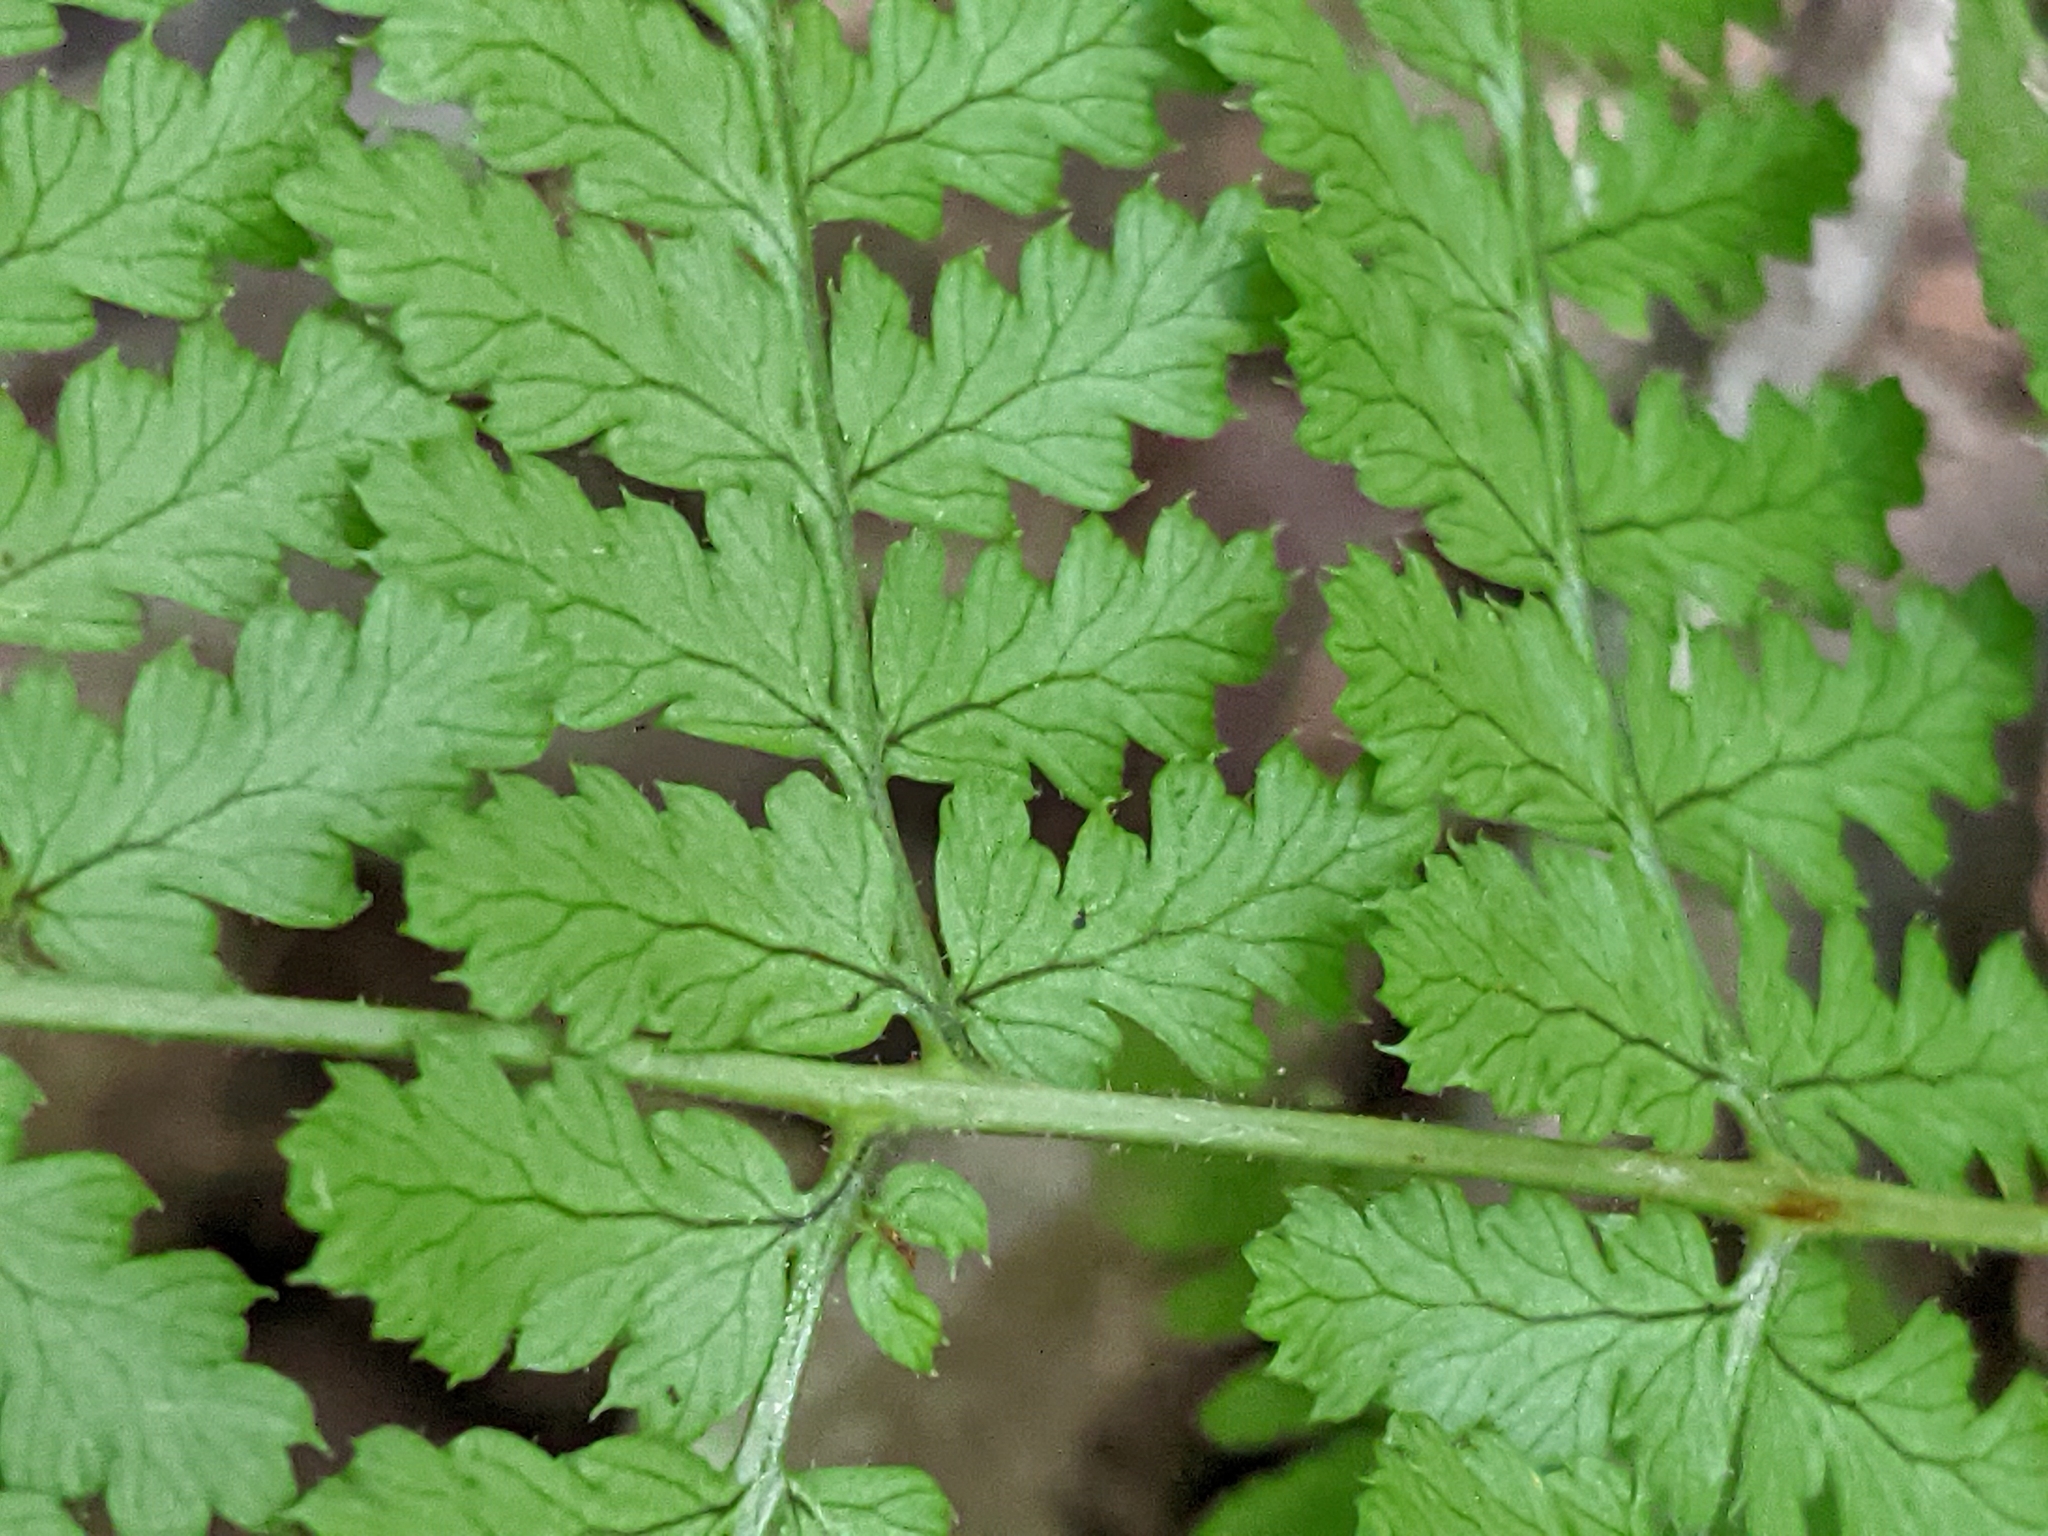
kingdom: Plantae
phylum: Tracheophyta
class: Polypodiopsida
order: Polypodiales
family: Dryopteridaceae
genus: Dryopteris
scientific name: Dryopteris intermedia
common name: Evergreen wood fern
